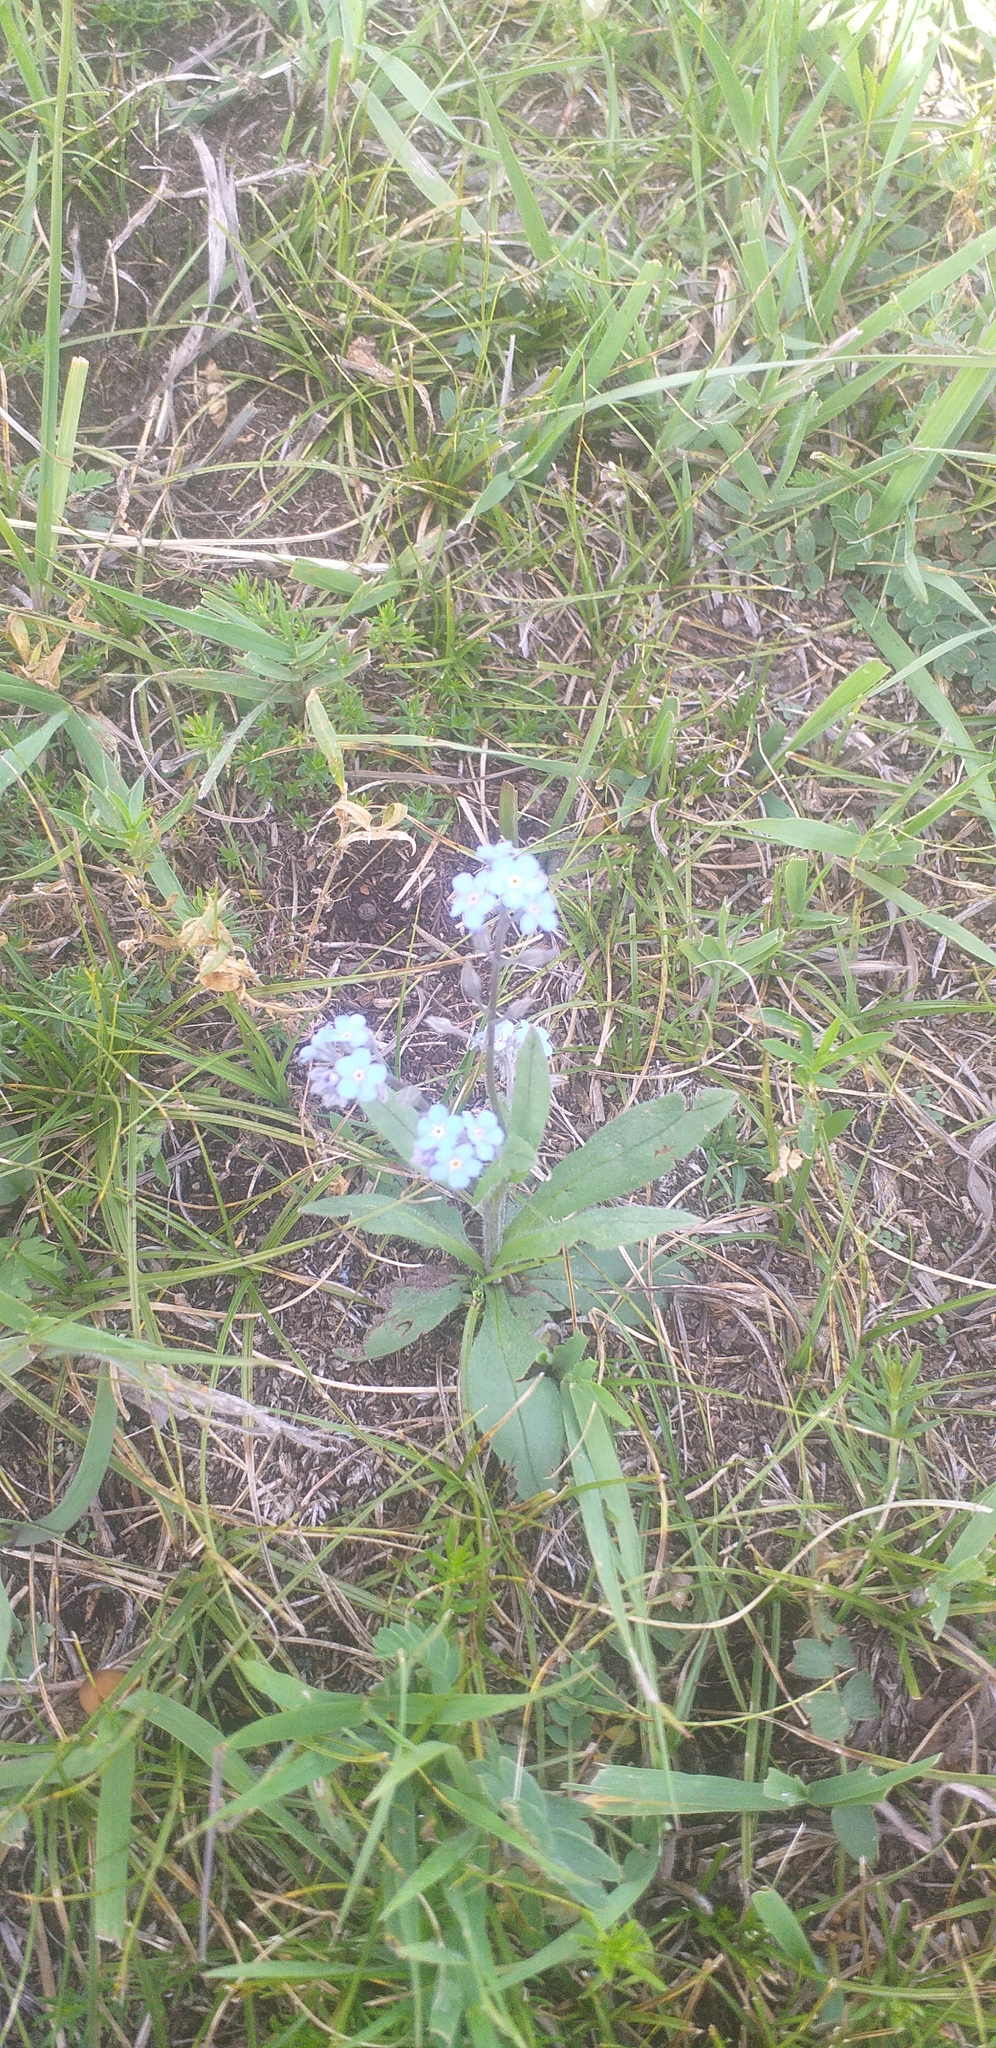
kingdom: Plantae
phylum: Tracheophyta
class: Magnoliopsida
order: Boraginales
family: Boraginaceae
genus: Myosotis
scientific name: Myosotis scorpioides
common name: Water forget-me-not
